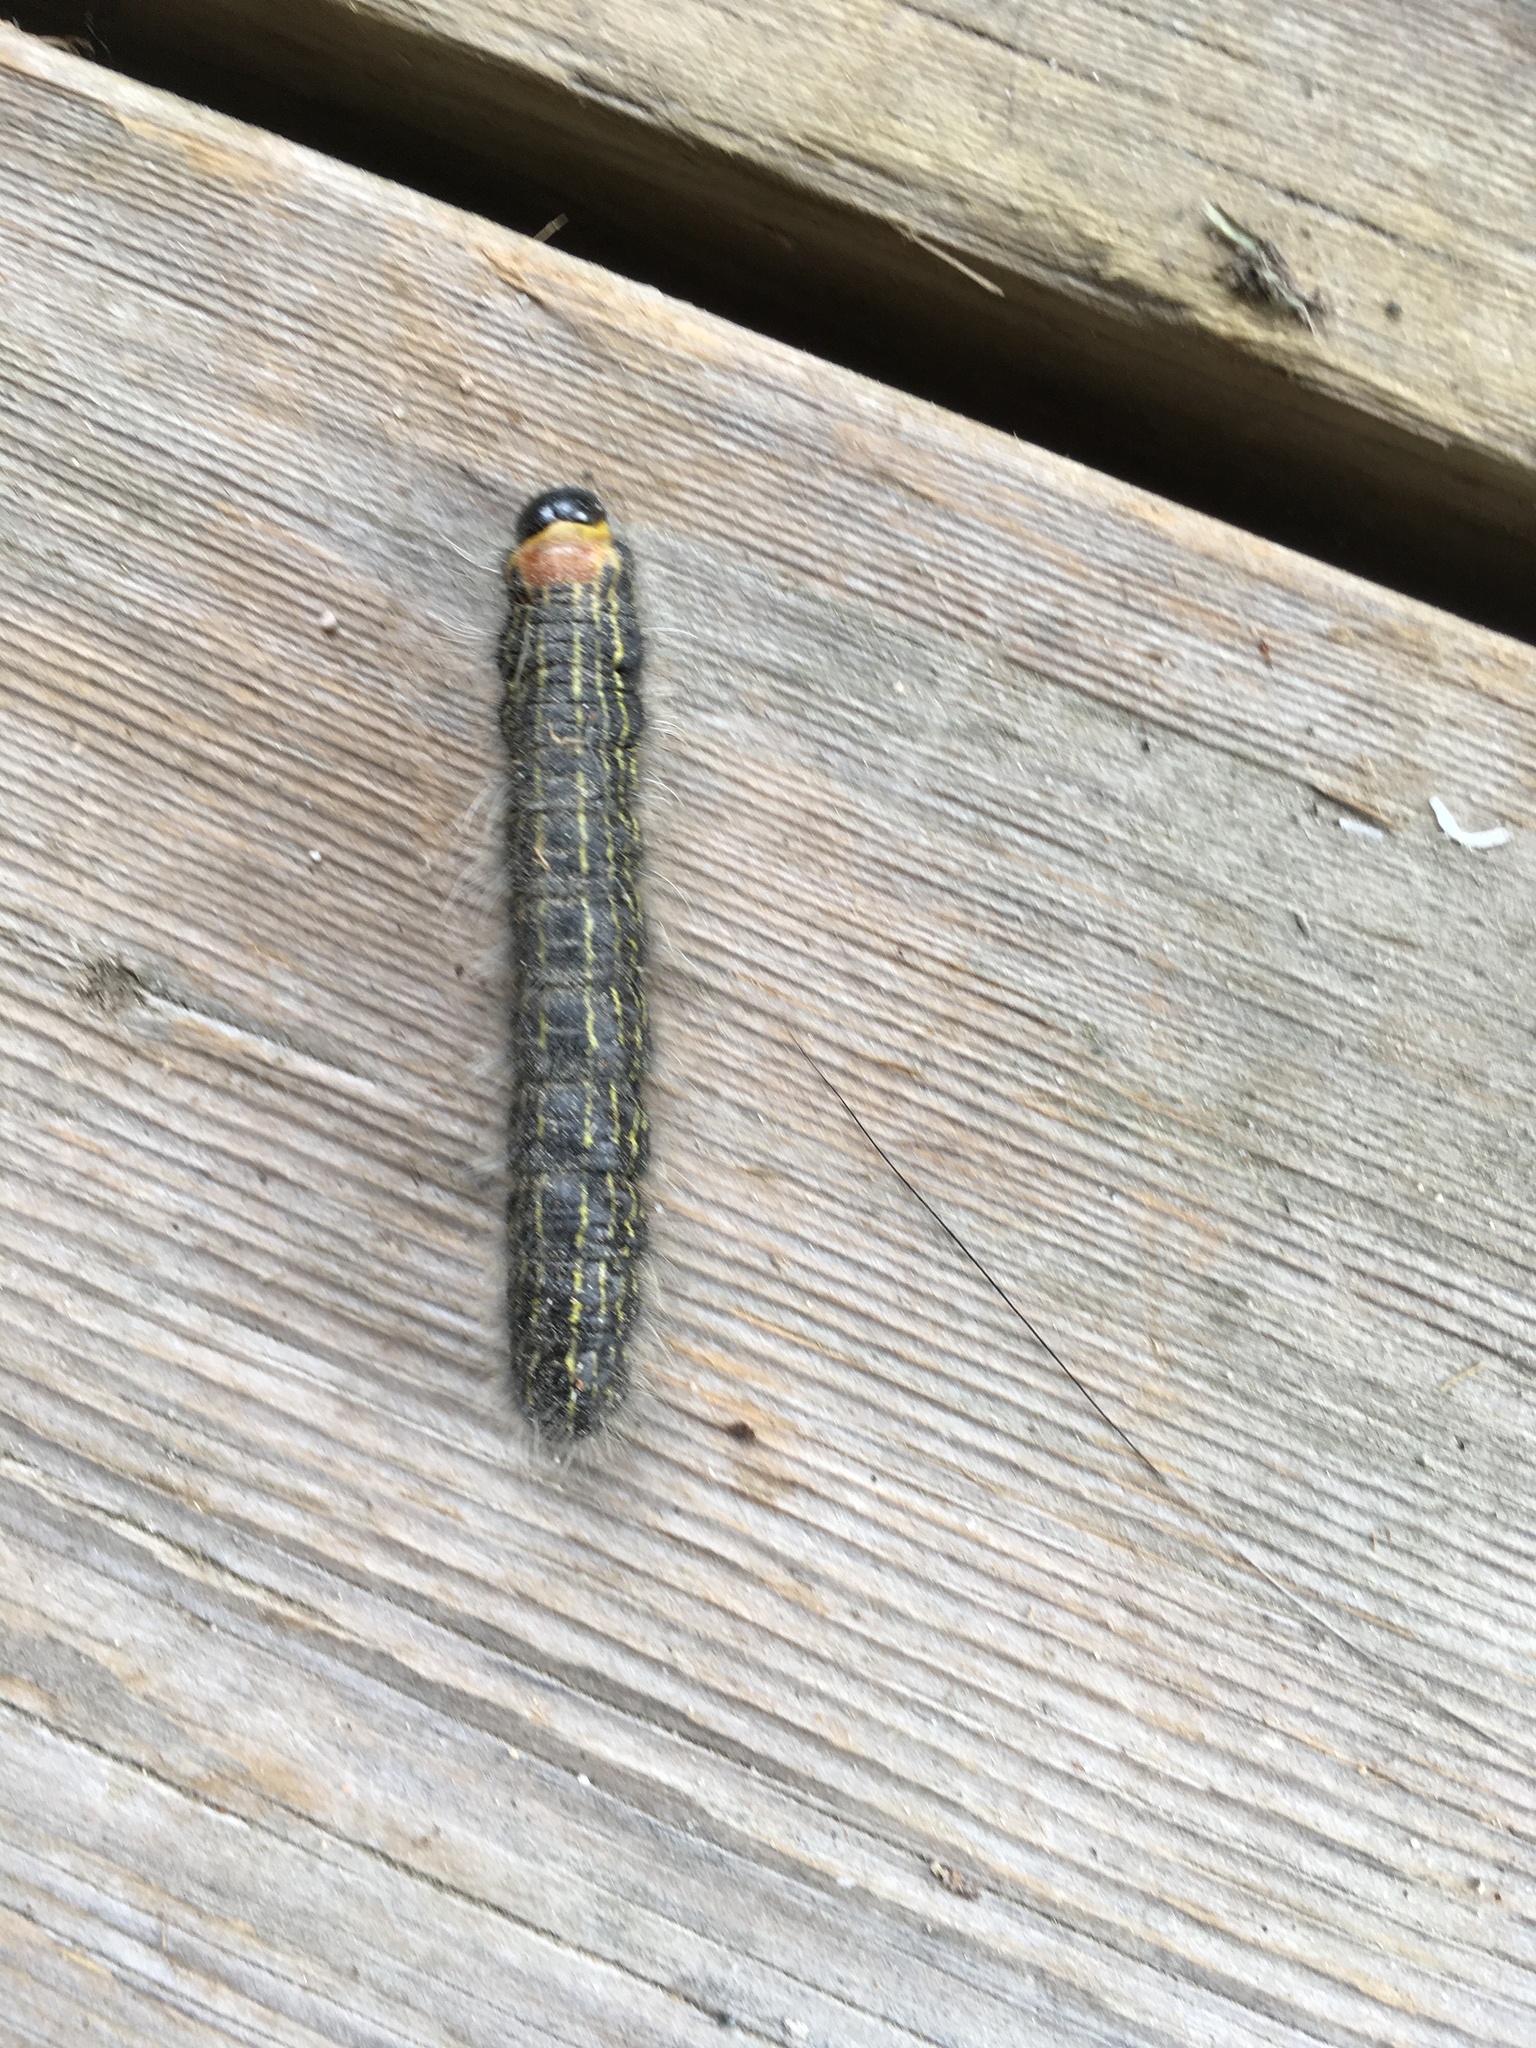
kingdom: Animalia
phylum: Arthropoda
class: Insecta
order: Lepidoptera
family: Notodontidae
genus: Datana
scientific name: Datana ministra
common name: Yellow-necked caterpillar moth
